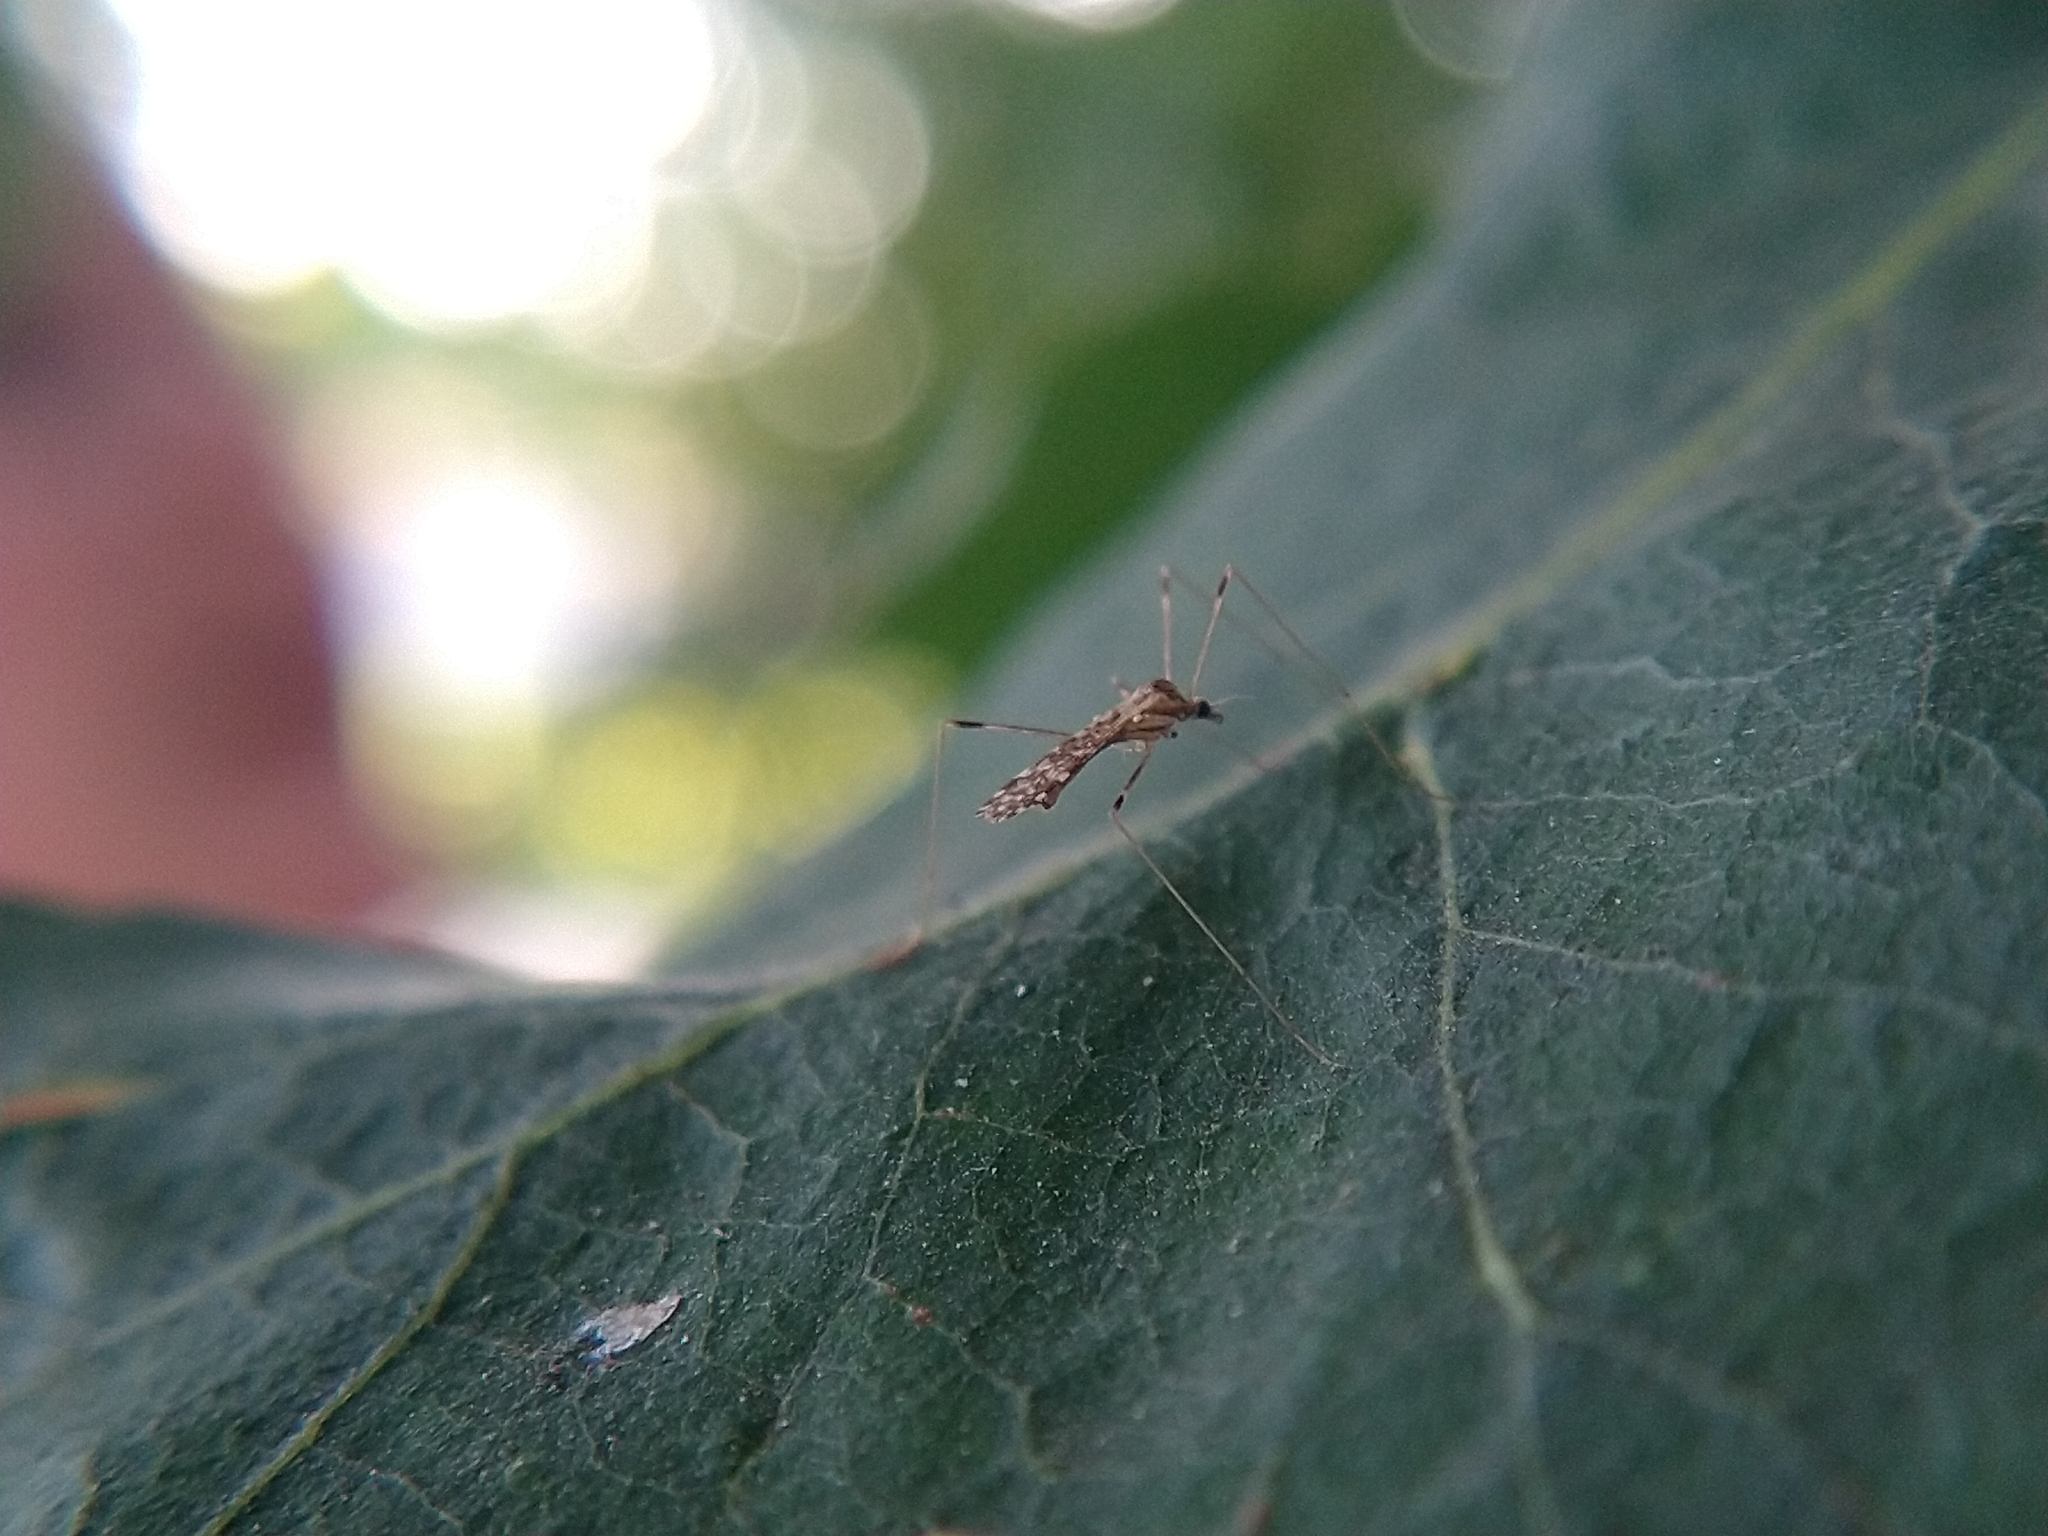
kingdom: Animalia
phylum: Arthropoda
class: Insecta
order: Diptera
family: Limoniidae
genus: Mesocyphona
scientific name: Mesocyphona
